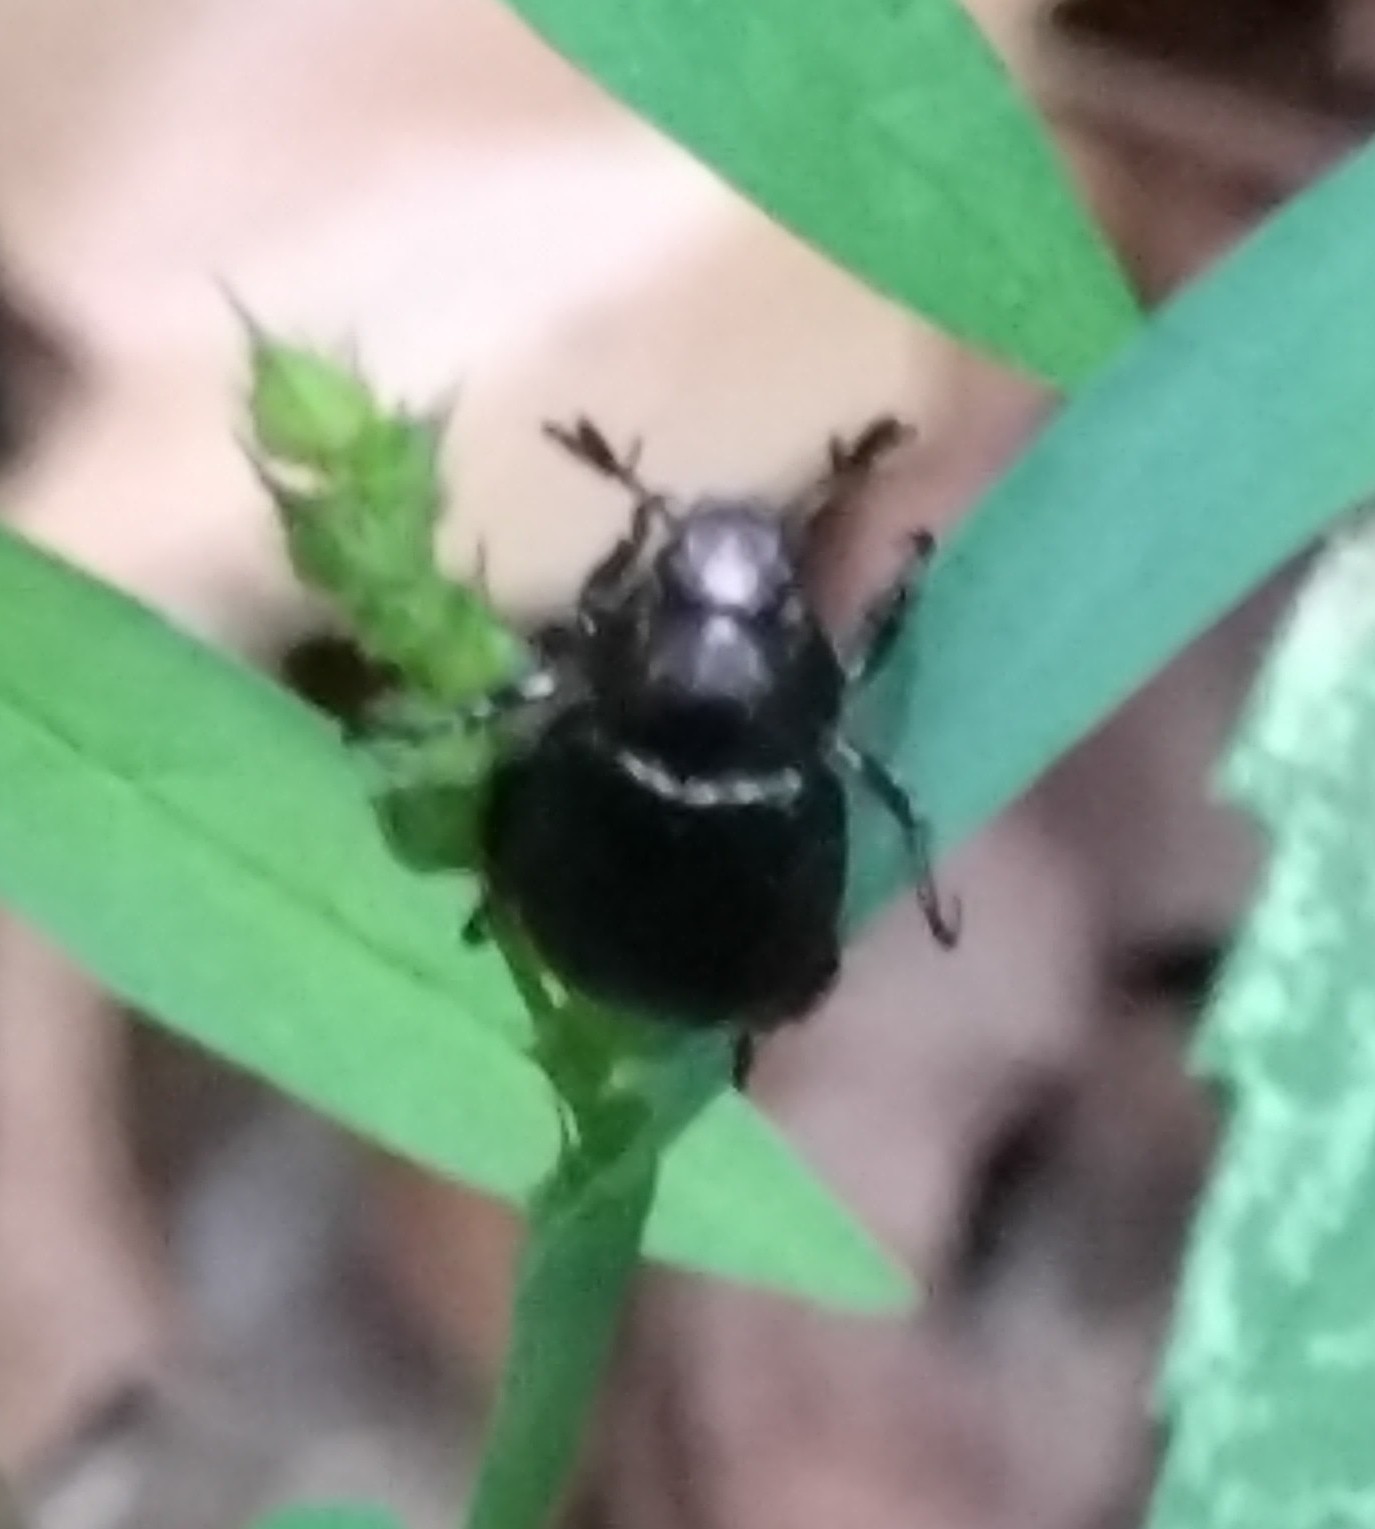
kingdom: Animalia
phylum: Arthropoda
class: Insecta
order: Coleoptera
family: Scarabaeidae
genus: Exomala
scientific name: Exomala orientalis
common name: Oriental beetle
